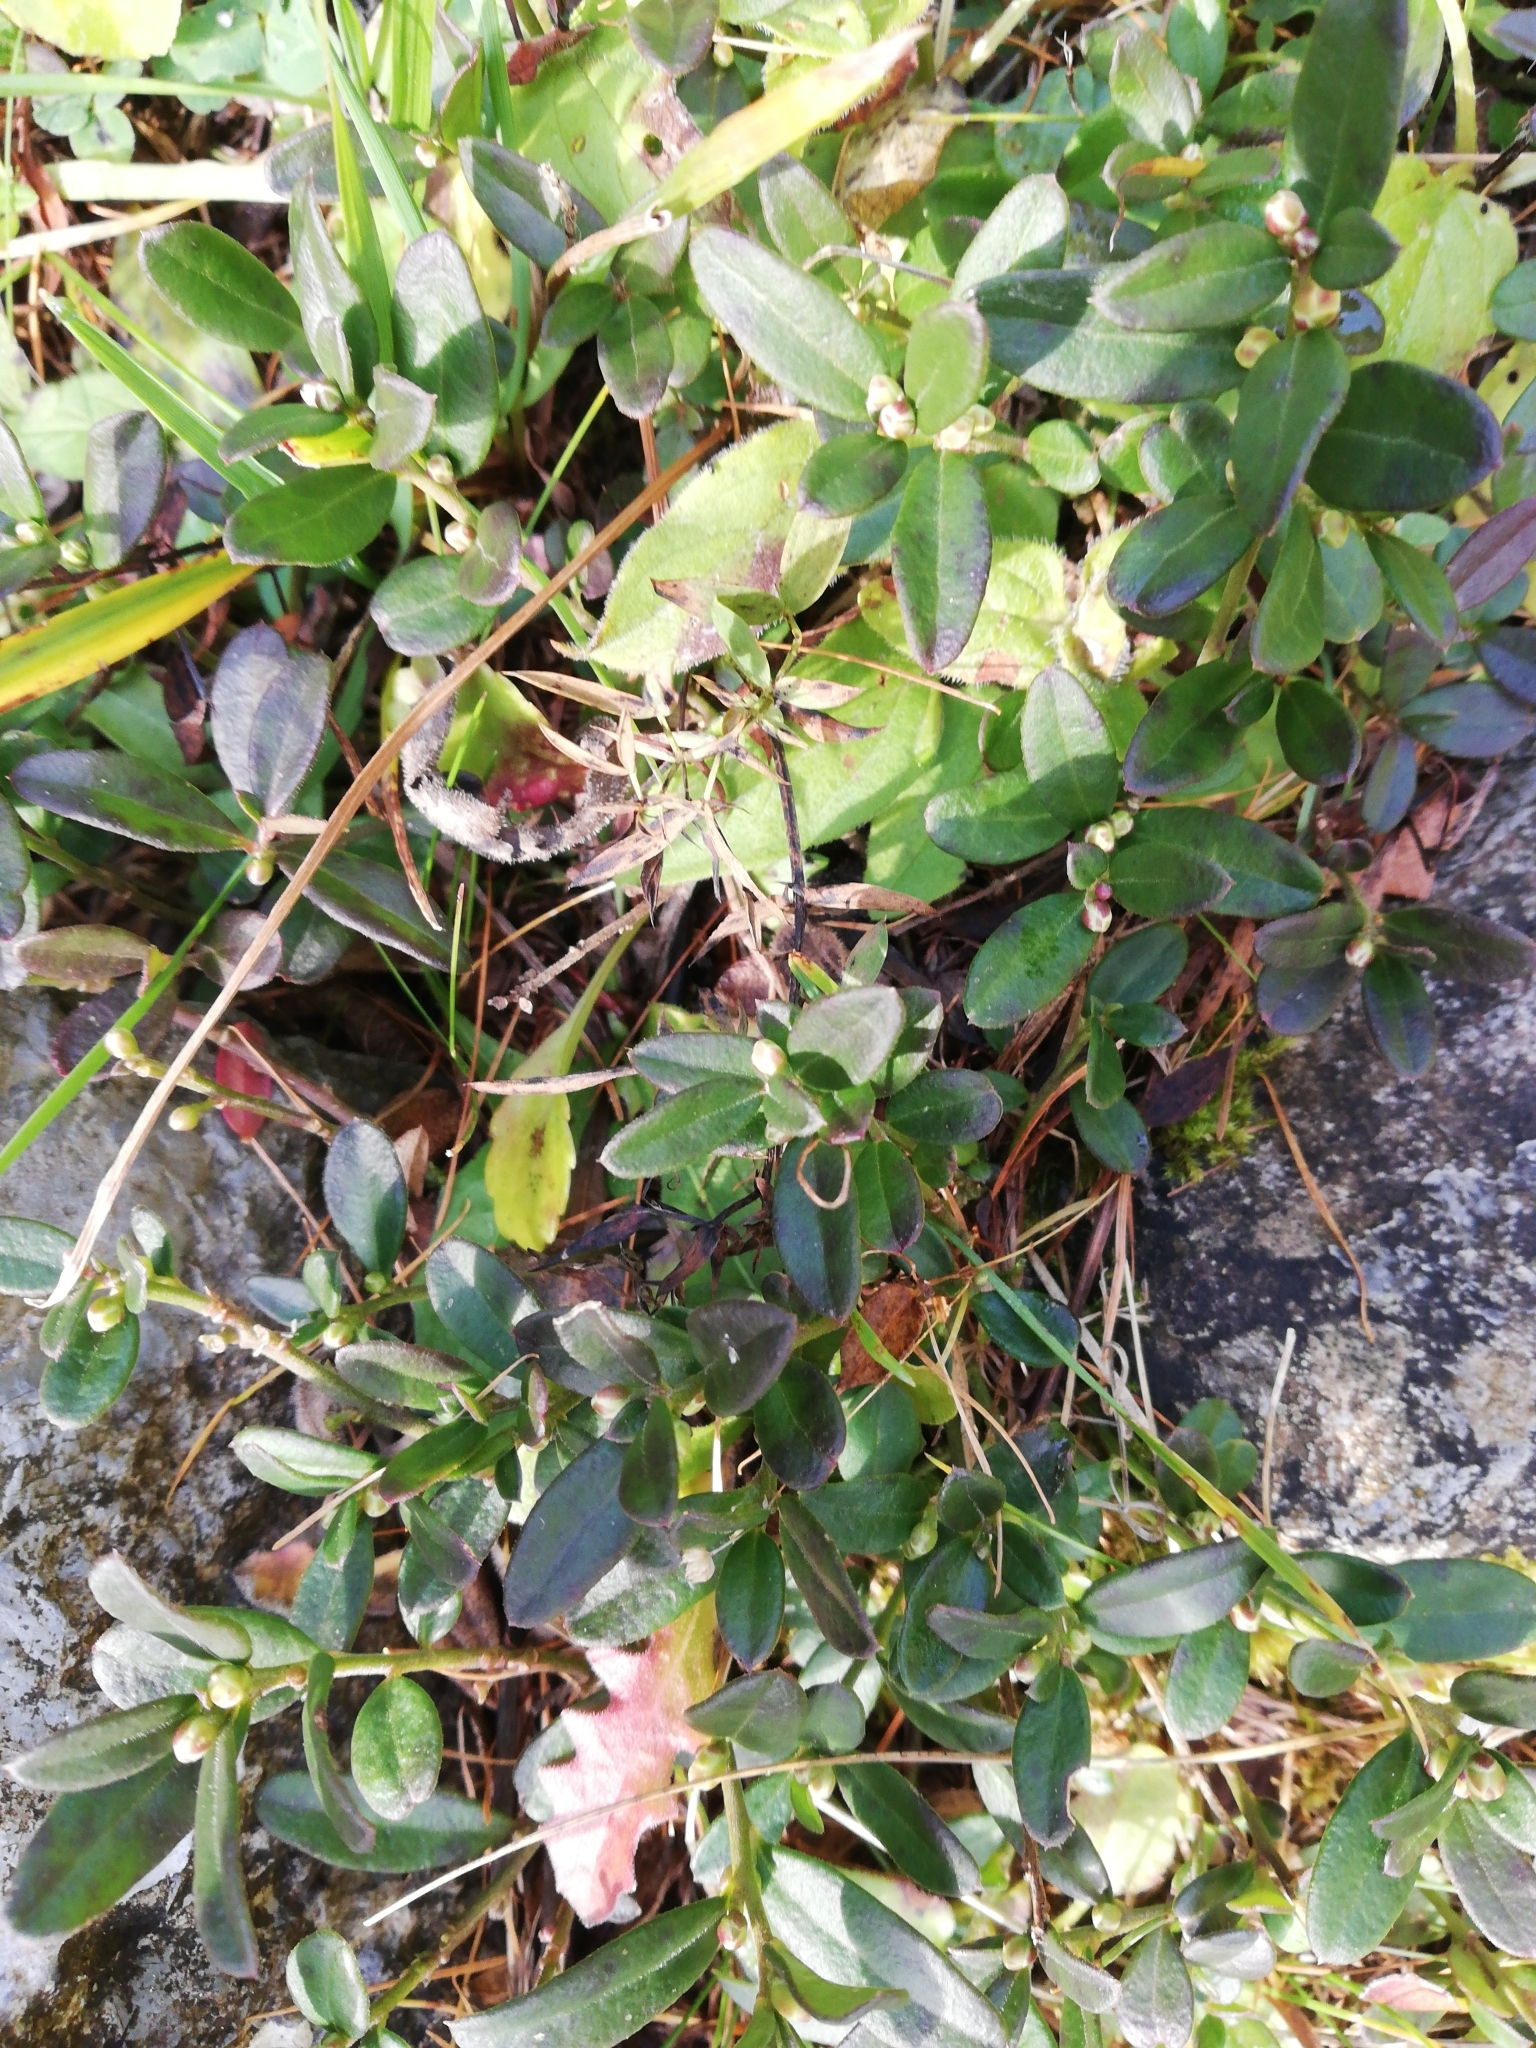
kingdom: Plantae
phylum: Tracheophyta
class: Magnoliopsida
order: Fabales
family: Polygalaceae
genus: Polygaloides
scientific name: Polygaloides chamaebuxus
